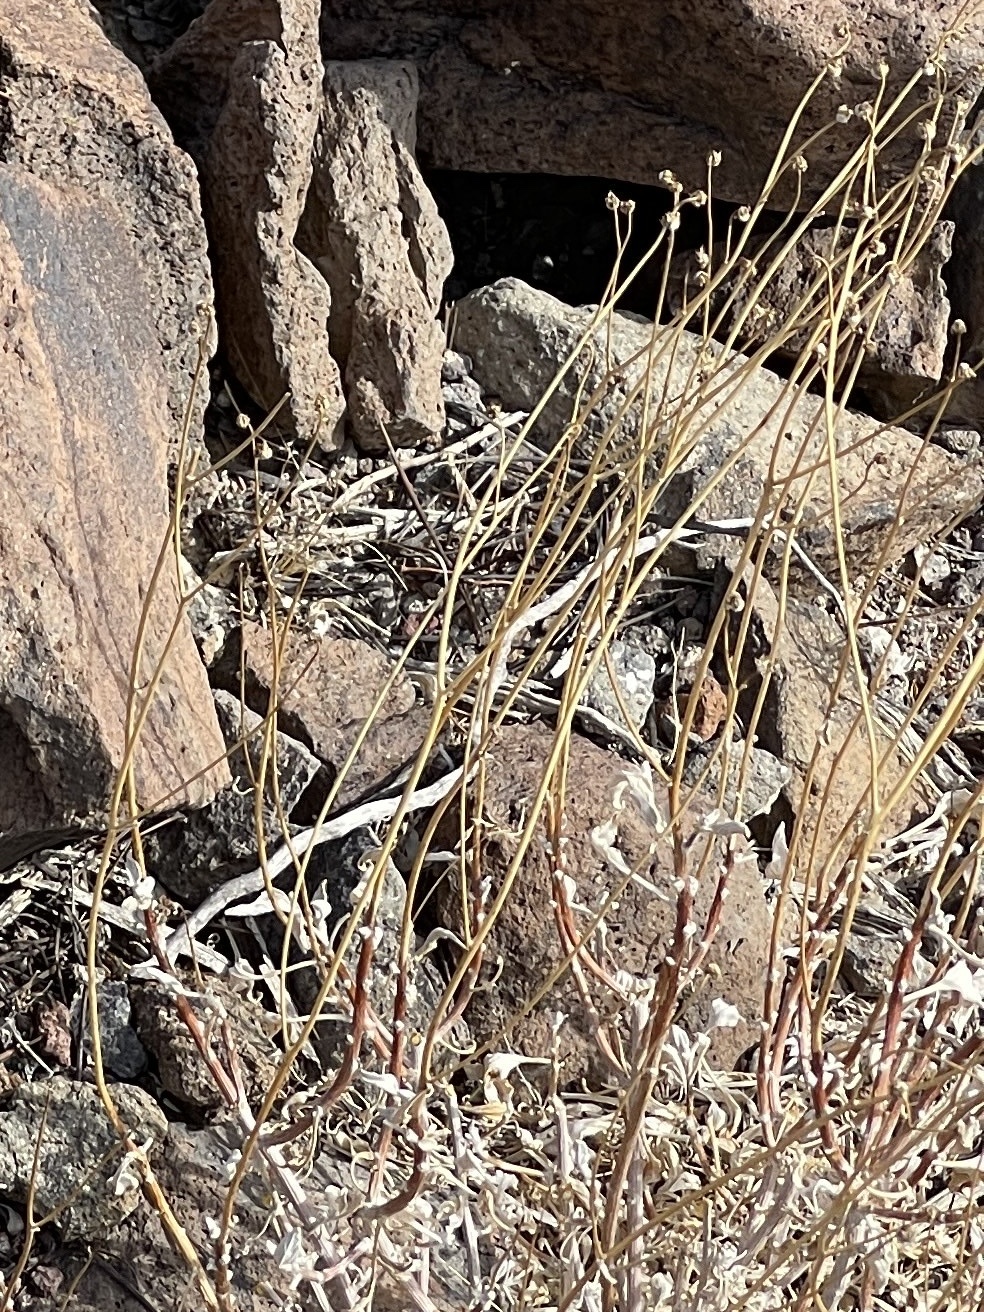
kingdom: Plantae
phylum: Tracheophyta
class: Magnoliopsida
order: Asterales
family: Asteraceae
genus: Encelia
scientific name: Encelia farinosa
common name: Brittlebush
